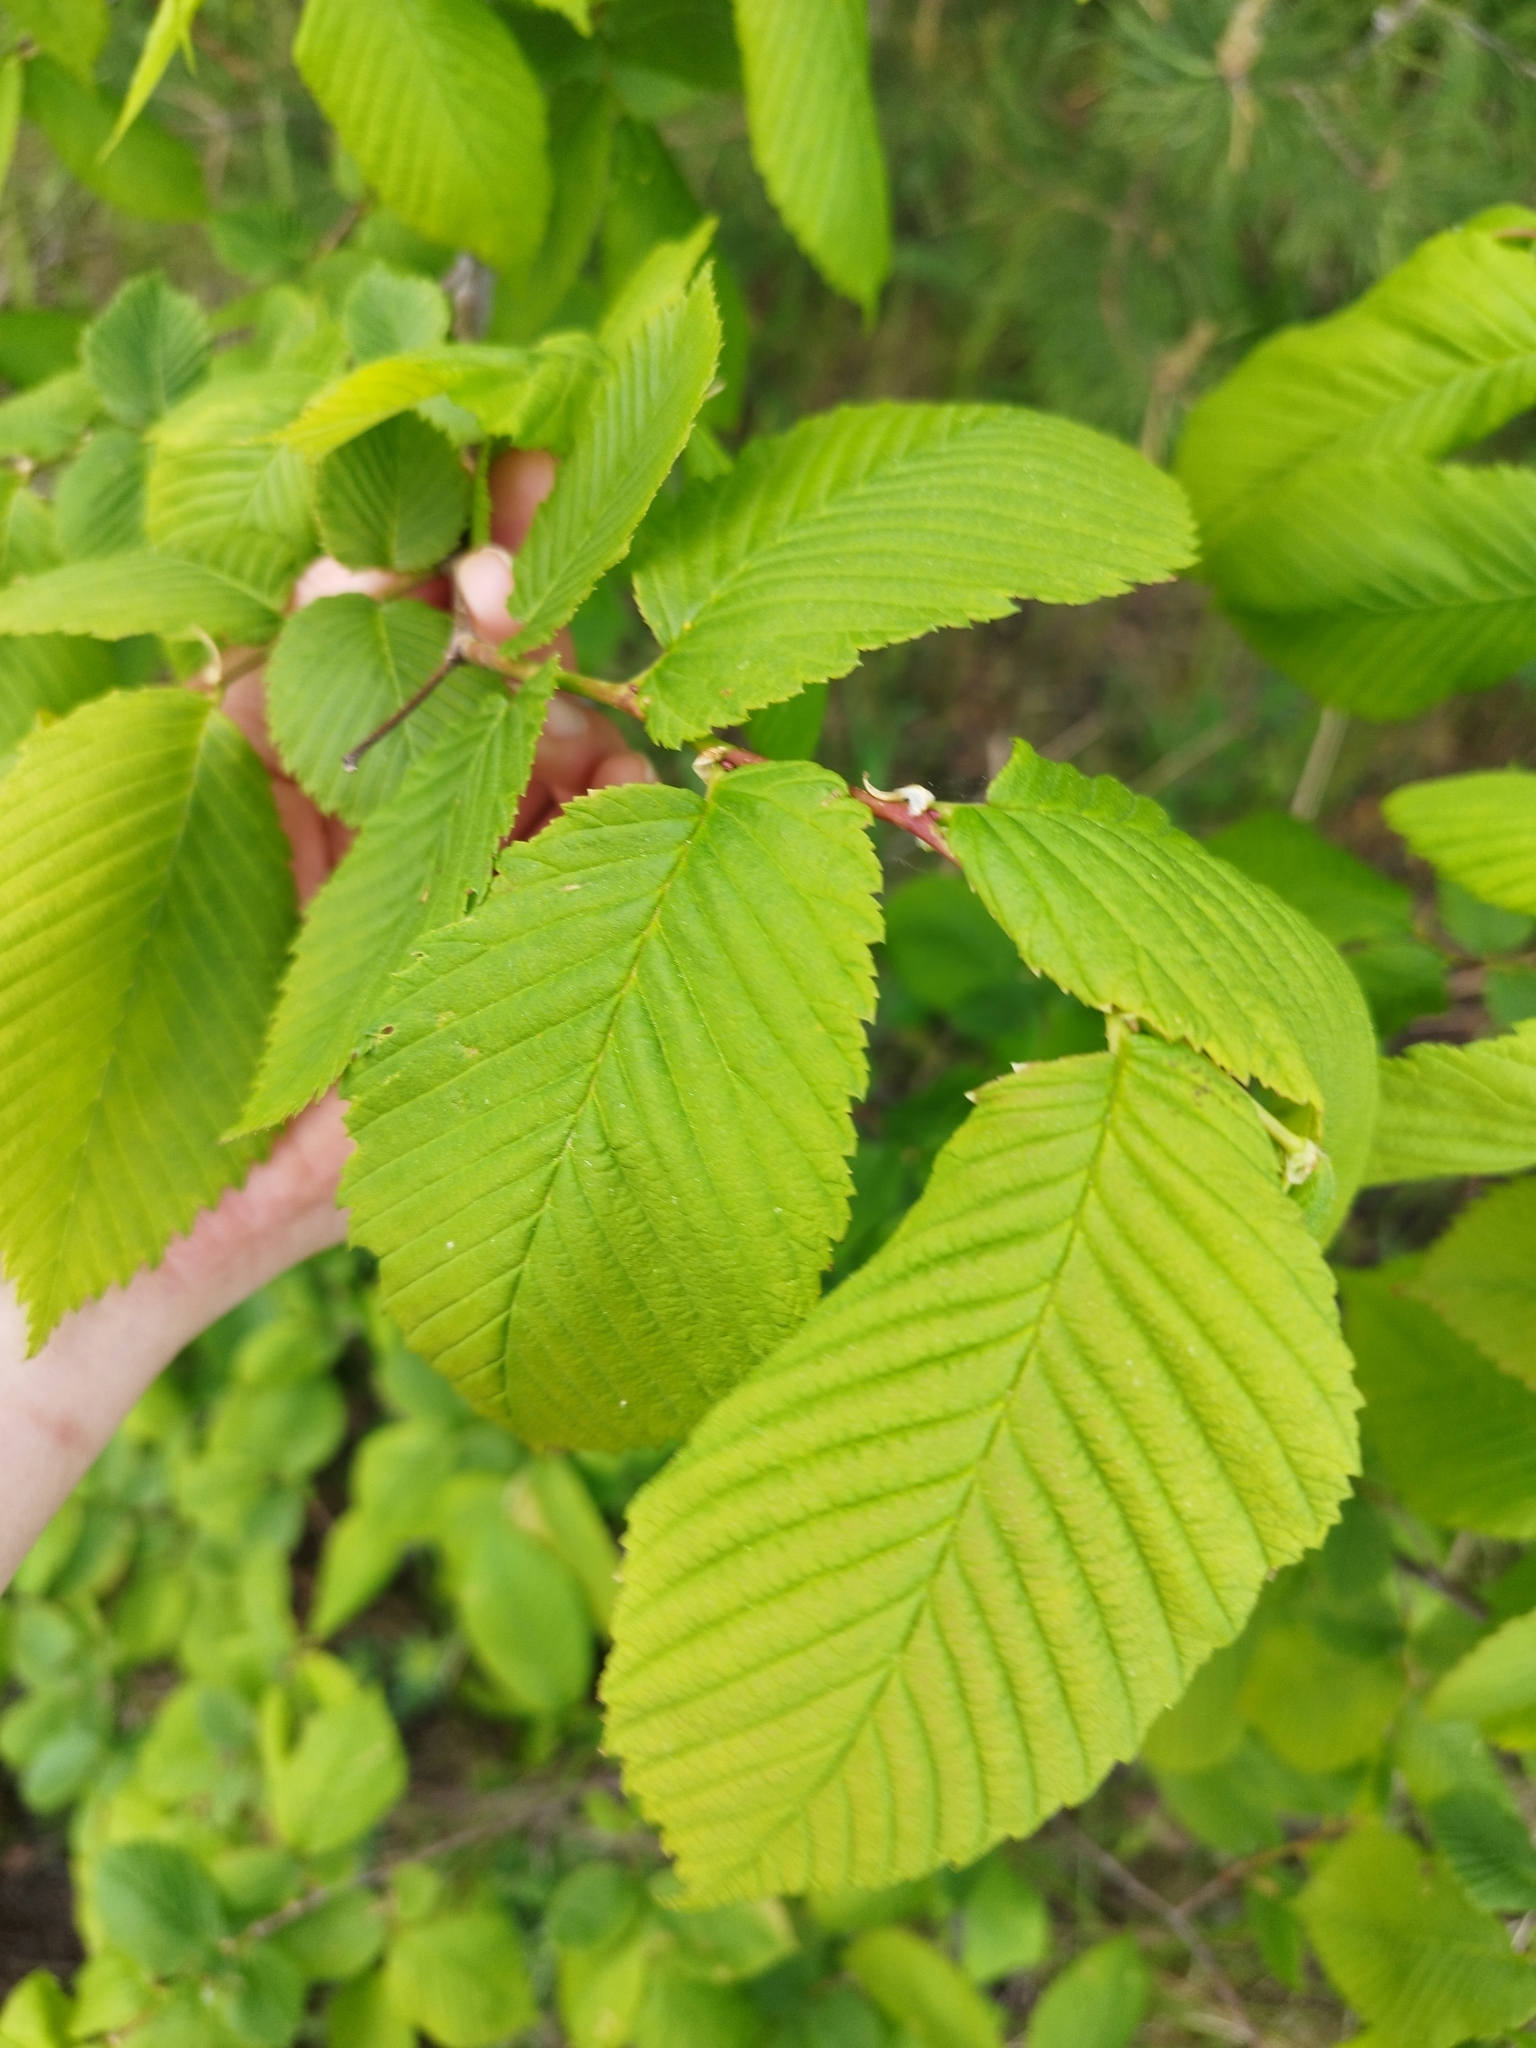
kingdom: Plantae
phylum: Tracheophyta
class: Magnoliopsida
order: Rosales
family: Ulmaceae
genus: Ulmus
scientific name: Ulmus laevis
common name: European white-elm
